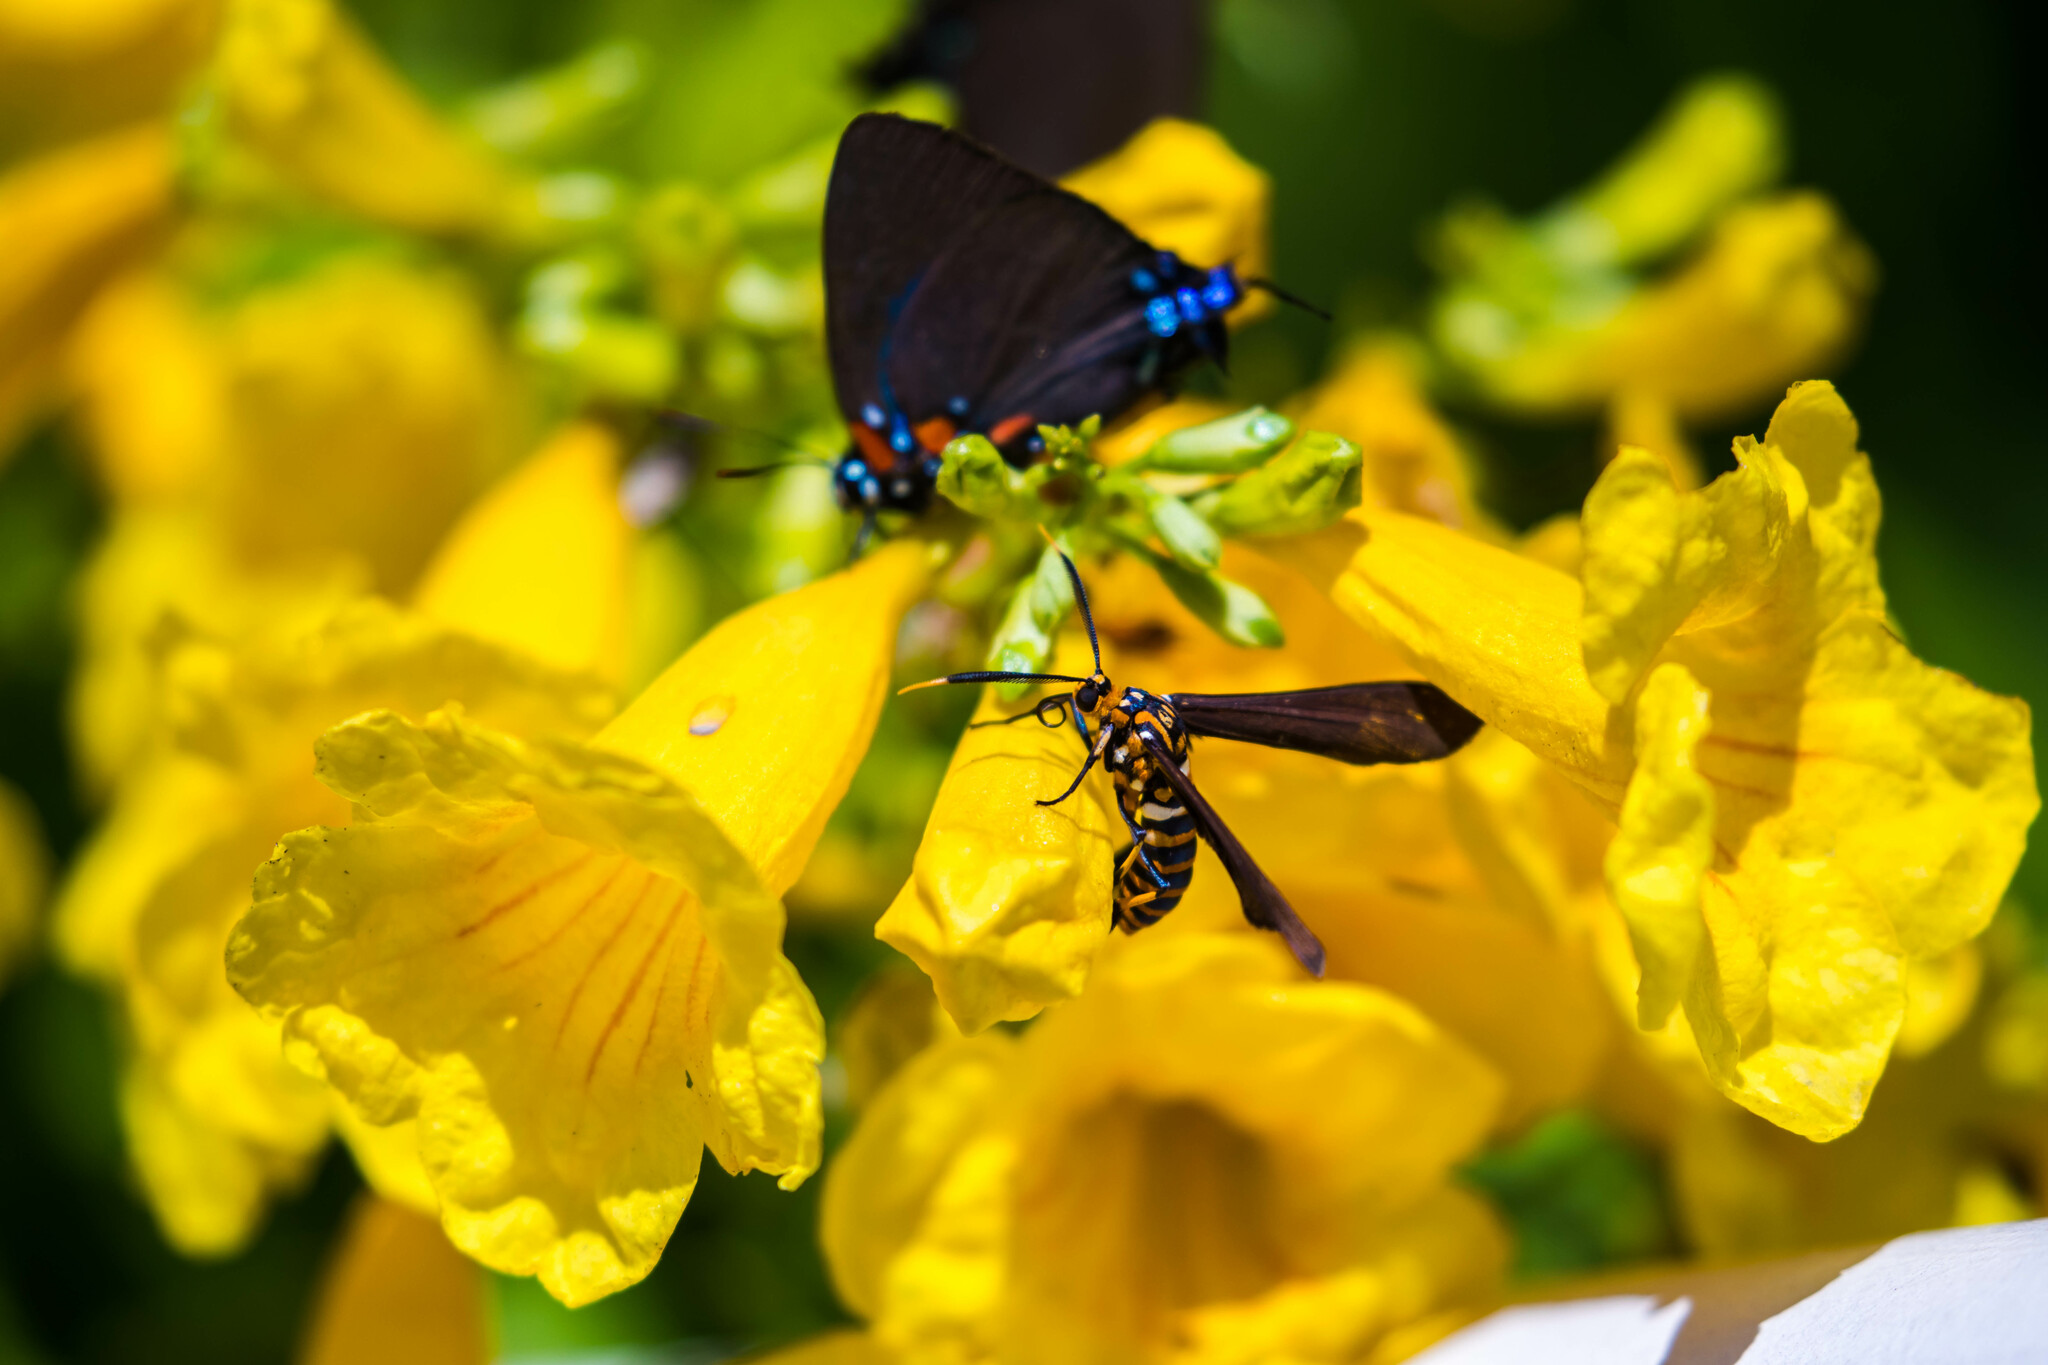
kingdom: Animalia
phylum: Arthropoda
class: Insecta
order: Lepidoptera
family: Erebidae
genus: Horama
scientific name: Horama panthalon
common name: Texas wasp moth
